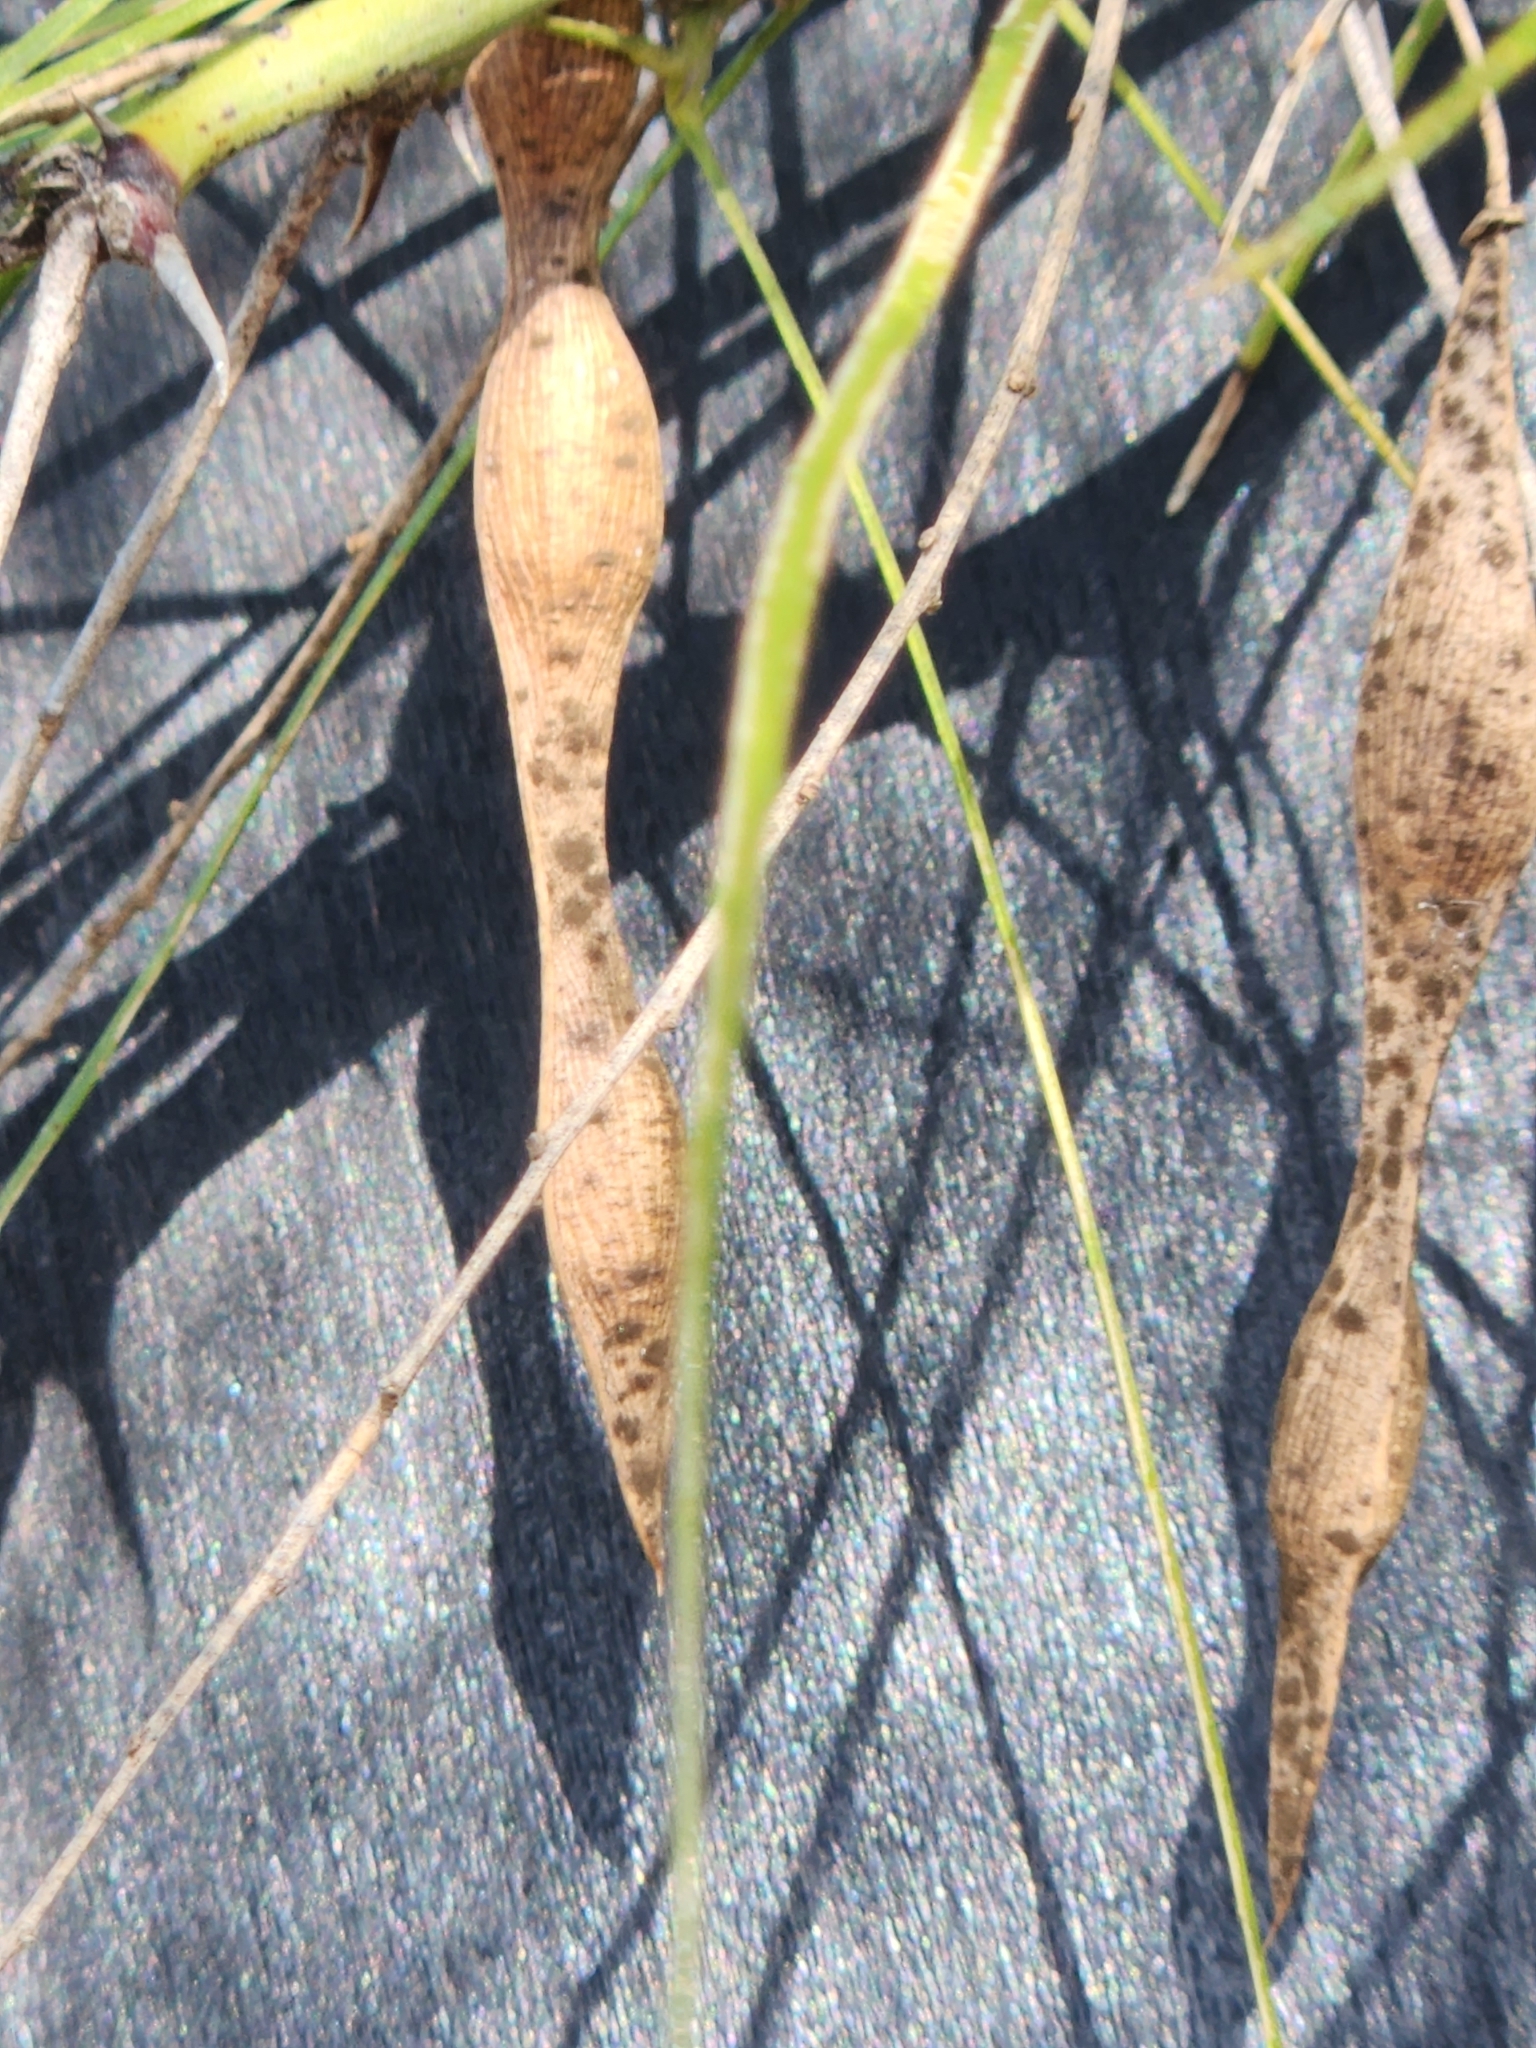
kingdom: Plantae
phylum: Tracheophyta
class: Magnoliopsida
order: Fabales
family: Fabaceae
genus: Parkinsonia
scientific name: Parkinsonia aculeata
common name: Jerusalem thorn
